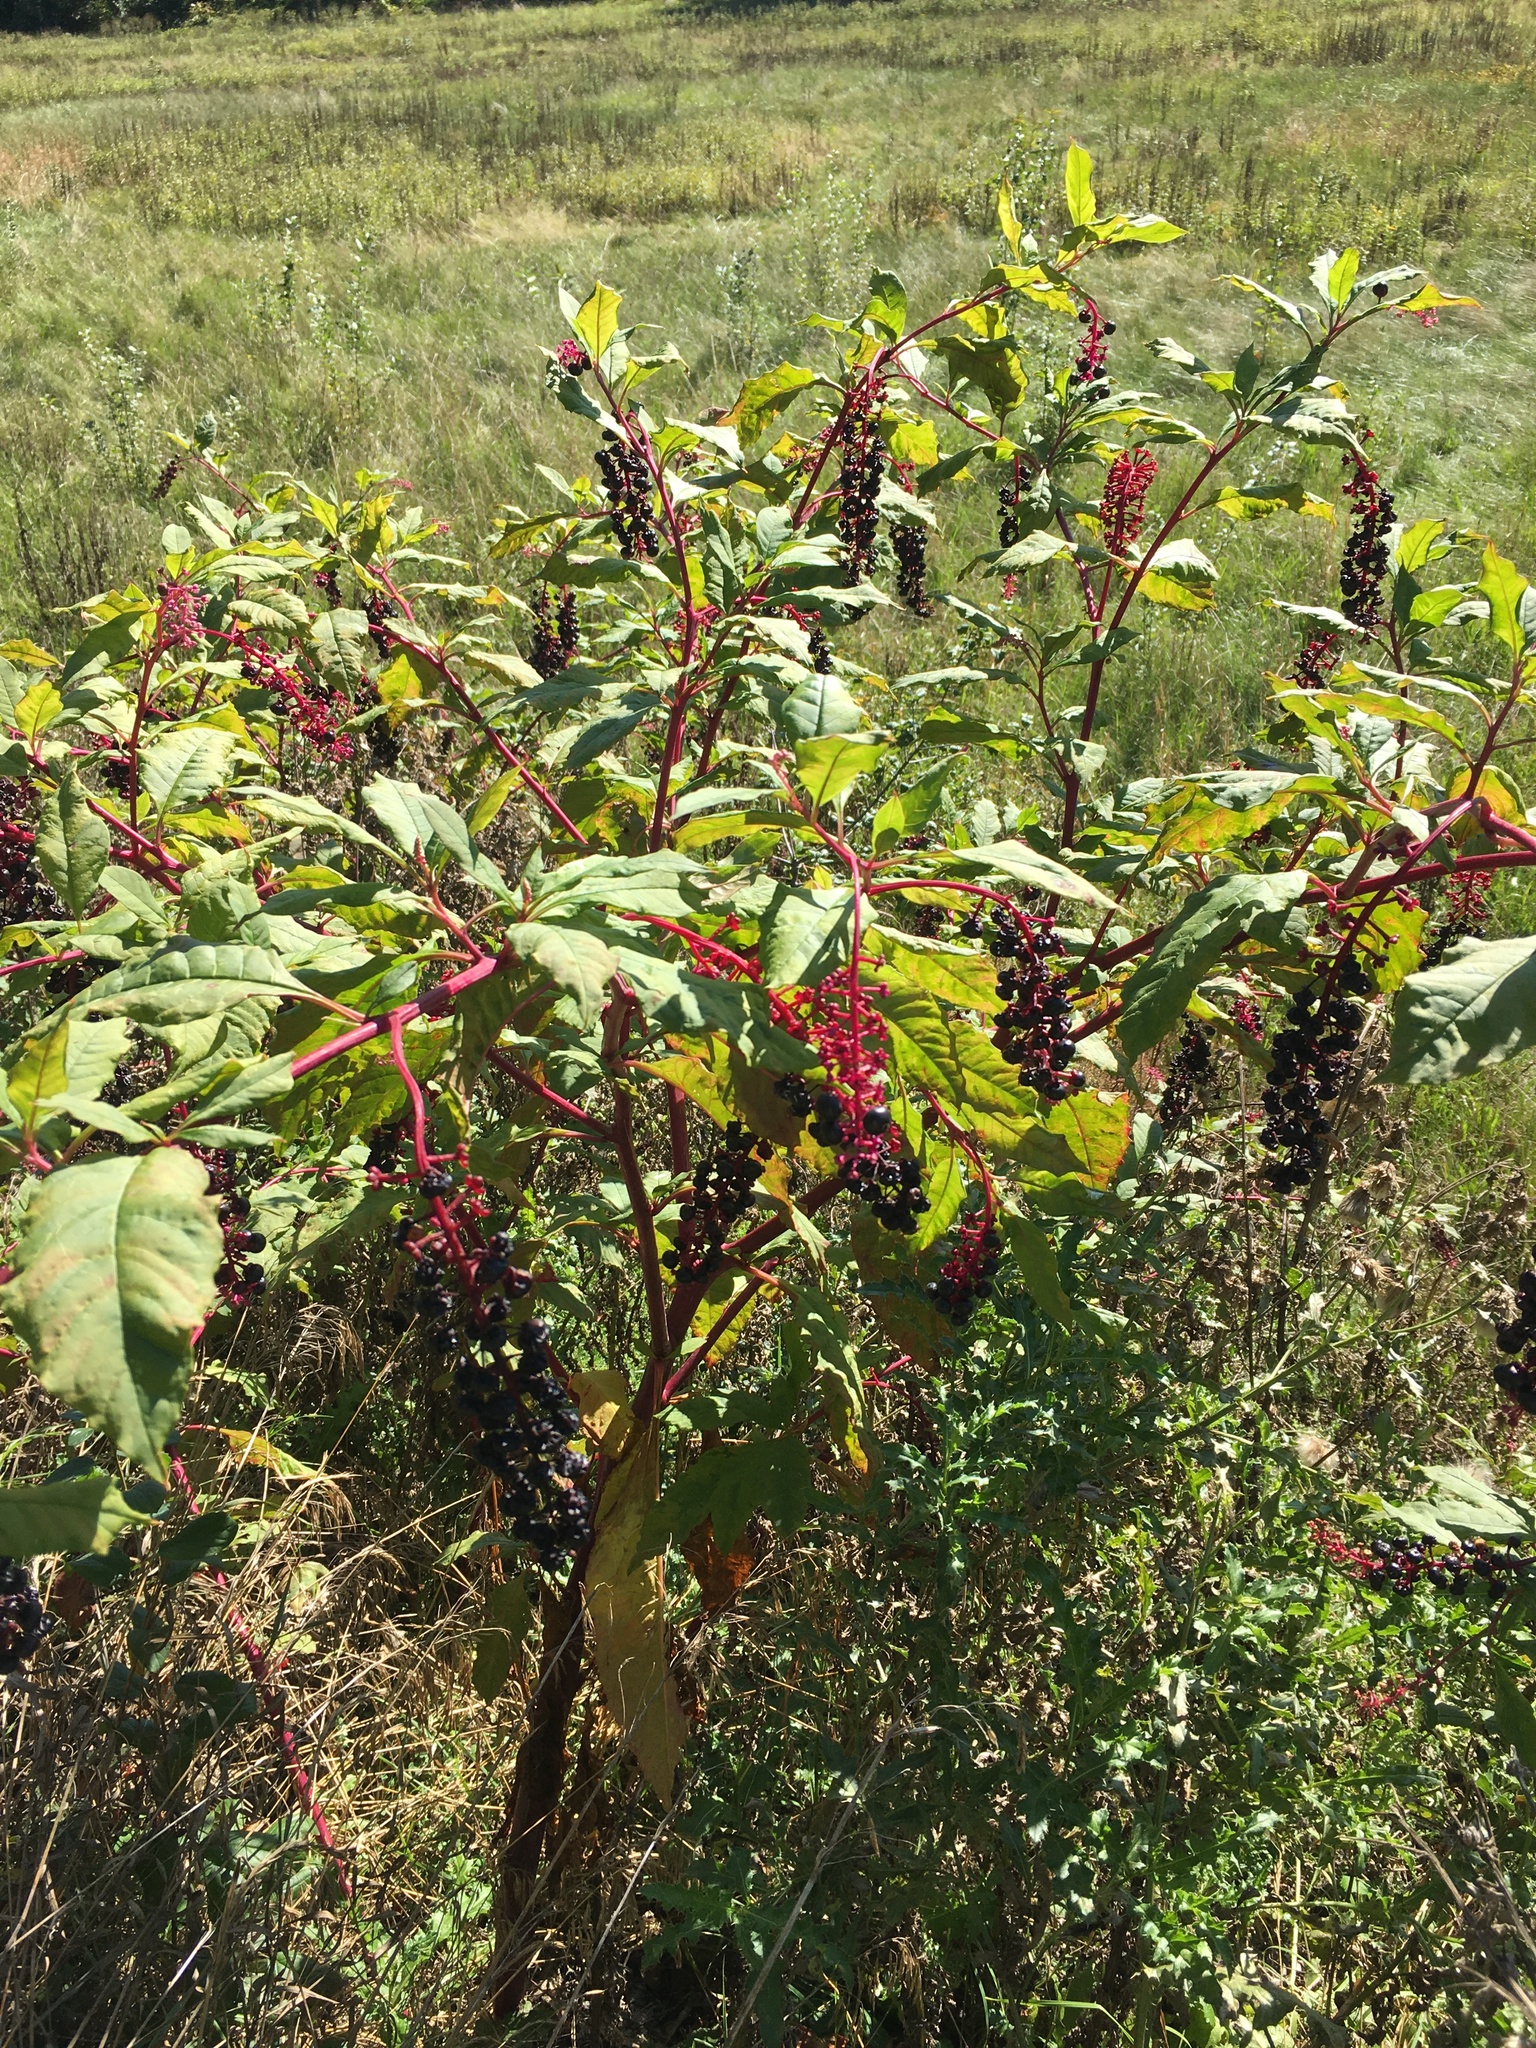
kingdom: Plantae
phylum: Tracheophyta
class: Magnoliopsida
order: Caryophyllales
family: Phytolaccaceae
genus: Phytolacca
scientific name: Phytolacca americana
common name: American pokeweed
